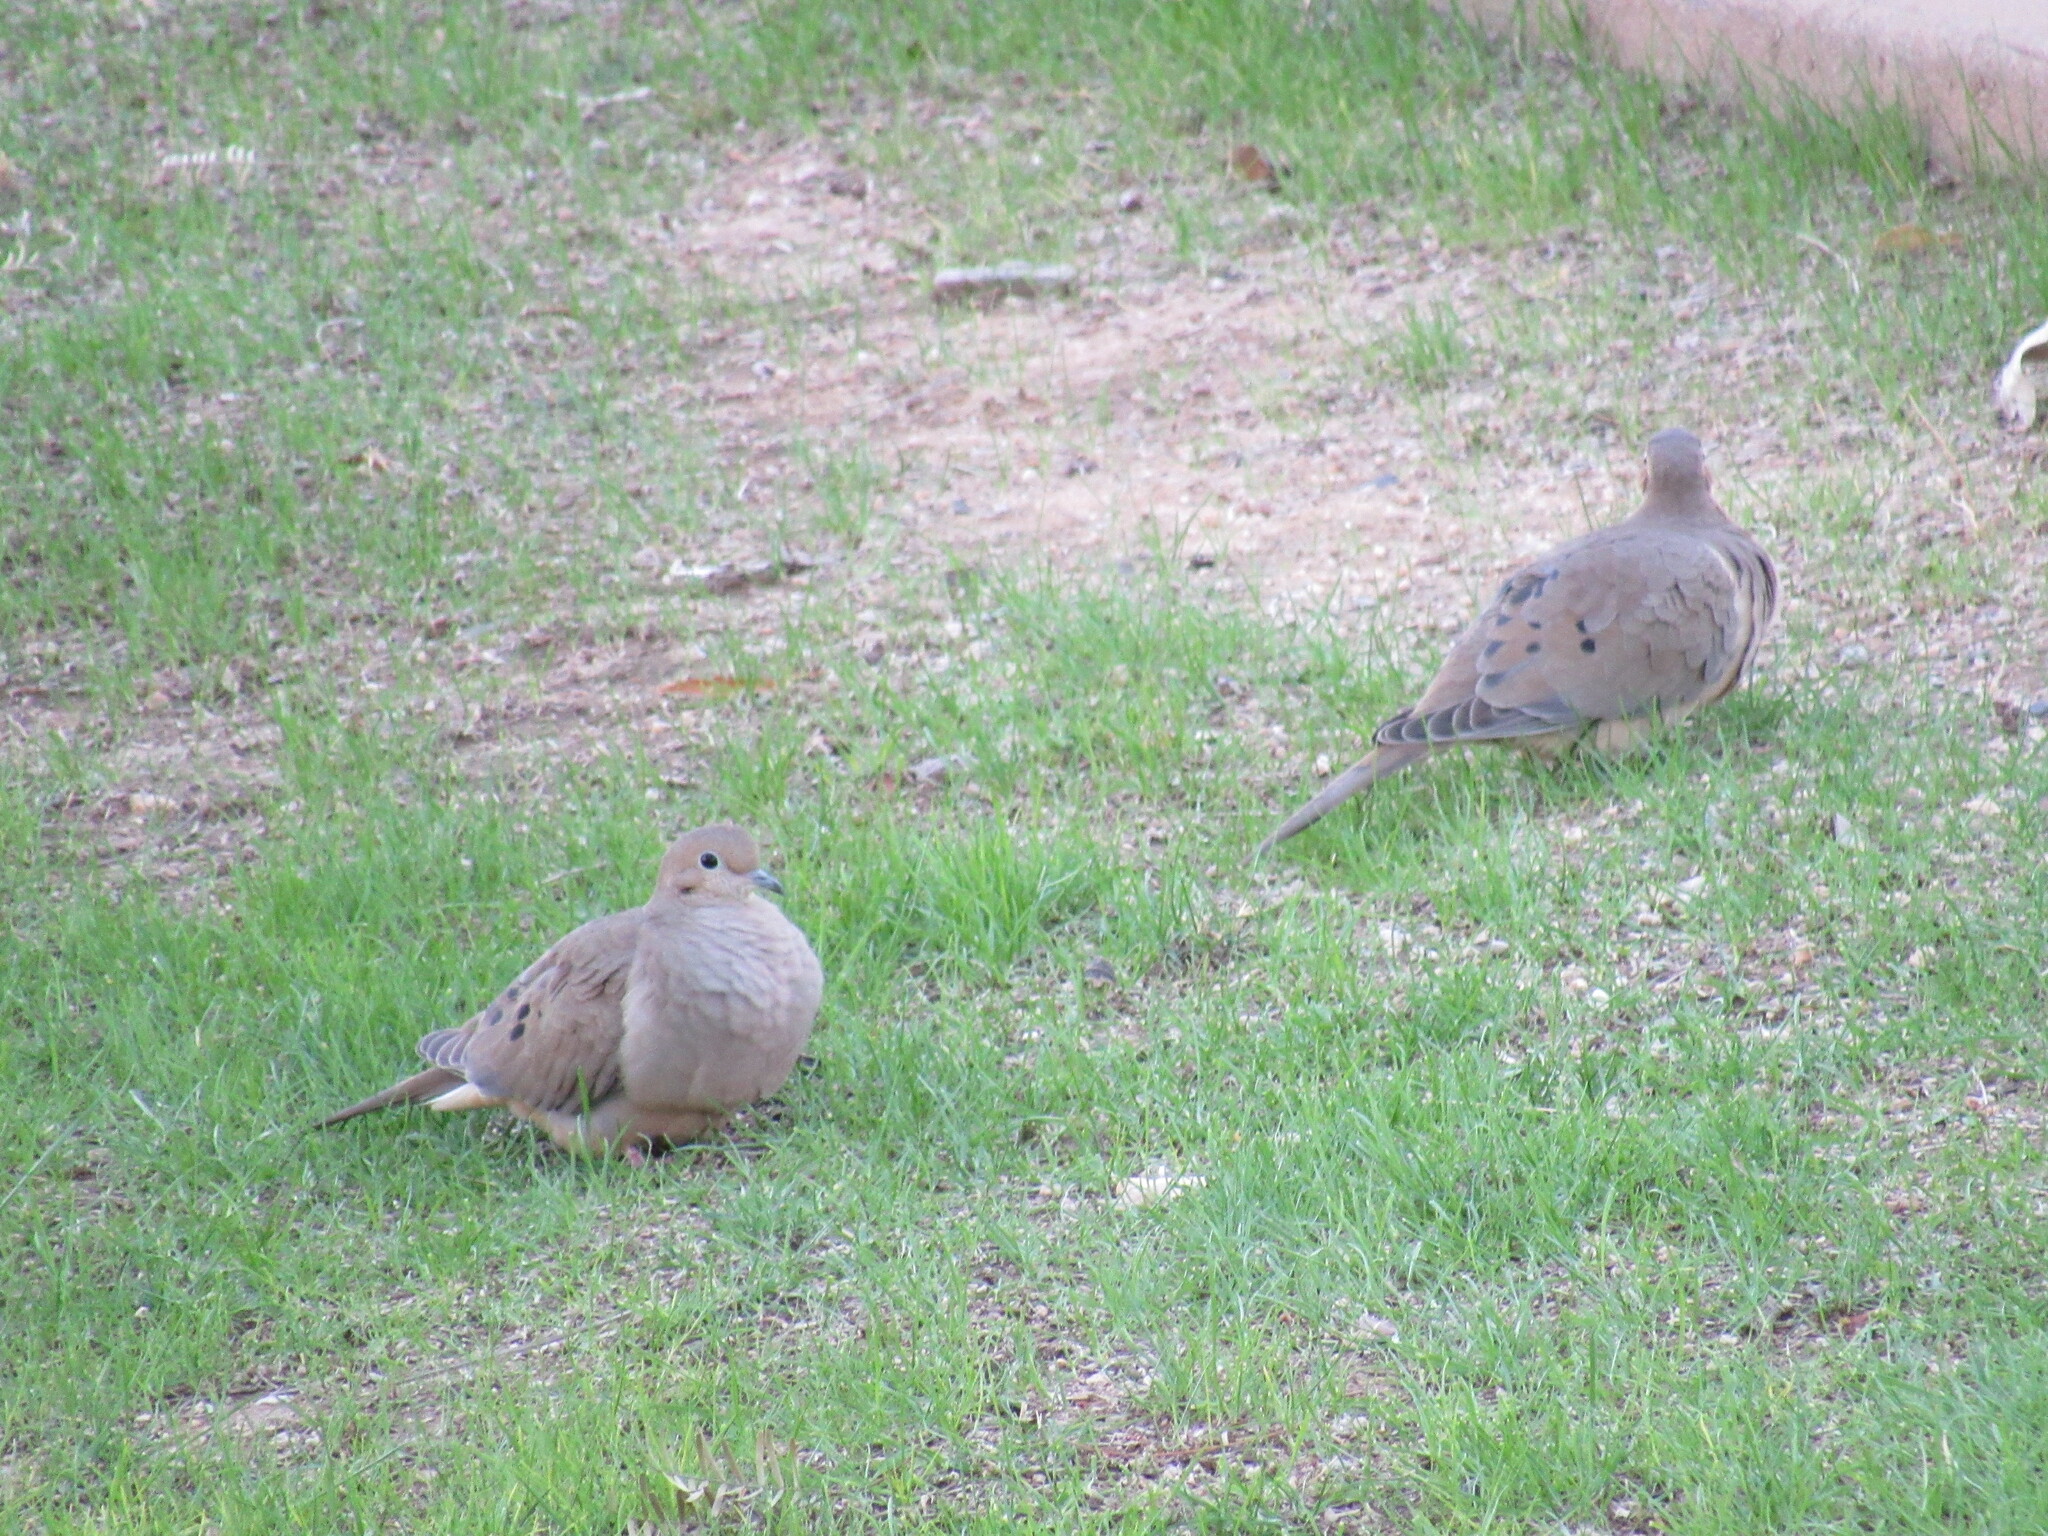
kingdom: Animalia
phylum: Chordata
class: Aves
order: Columbiformes
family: Columbidae
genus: Zenaida
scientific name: Zenaida macroura
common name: Mourning dove
